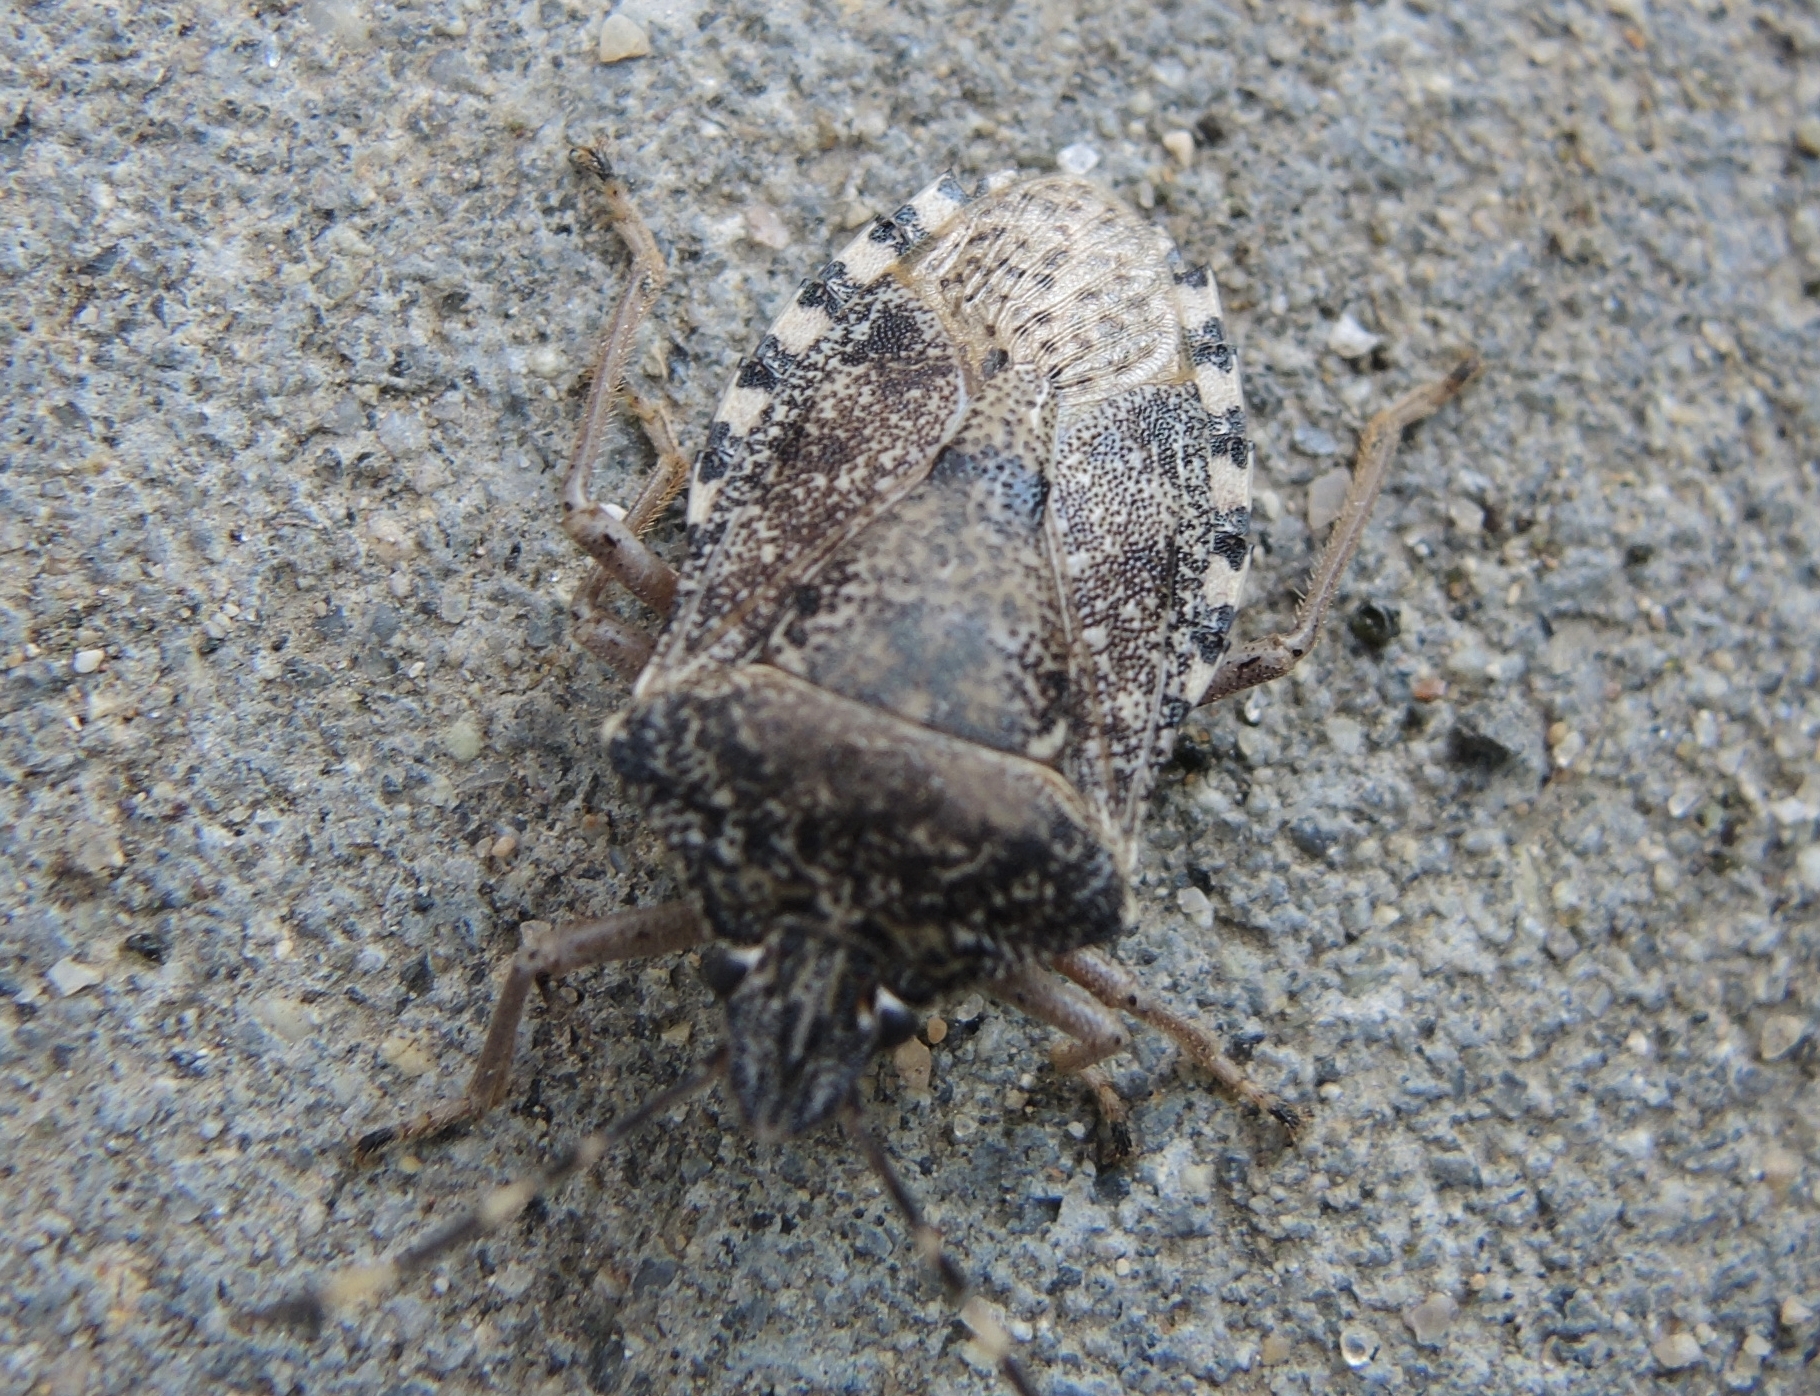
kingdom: Animalia
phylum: Arthropoda
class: Insecta
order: Hemiptera
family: Pentatomidae
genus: Rhaphigaster
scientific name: Rhaphigaster nebulosa
